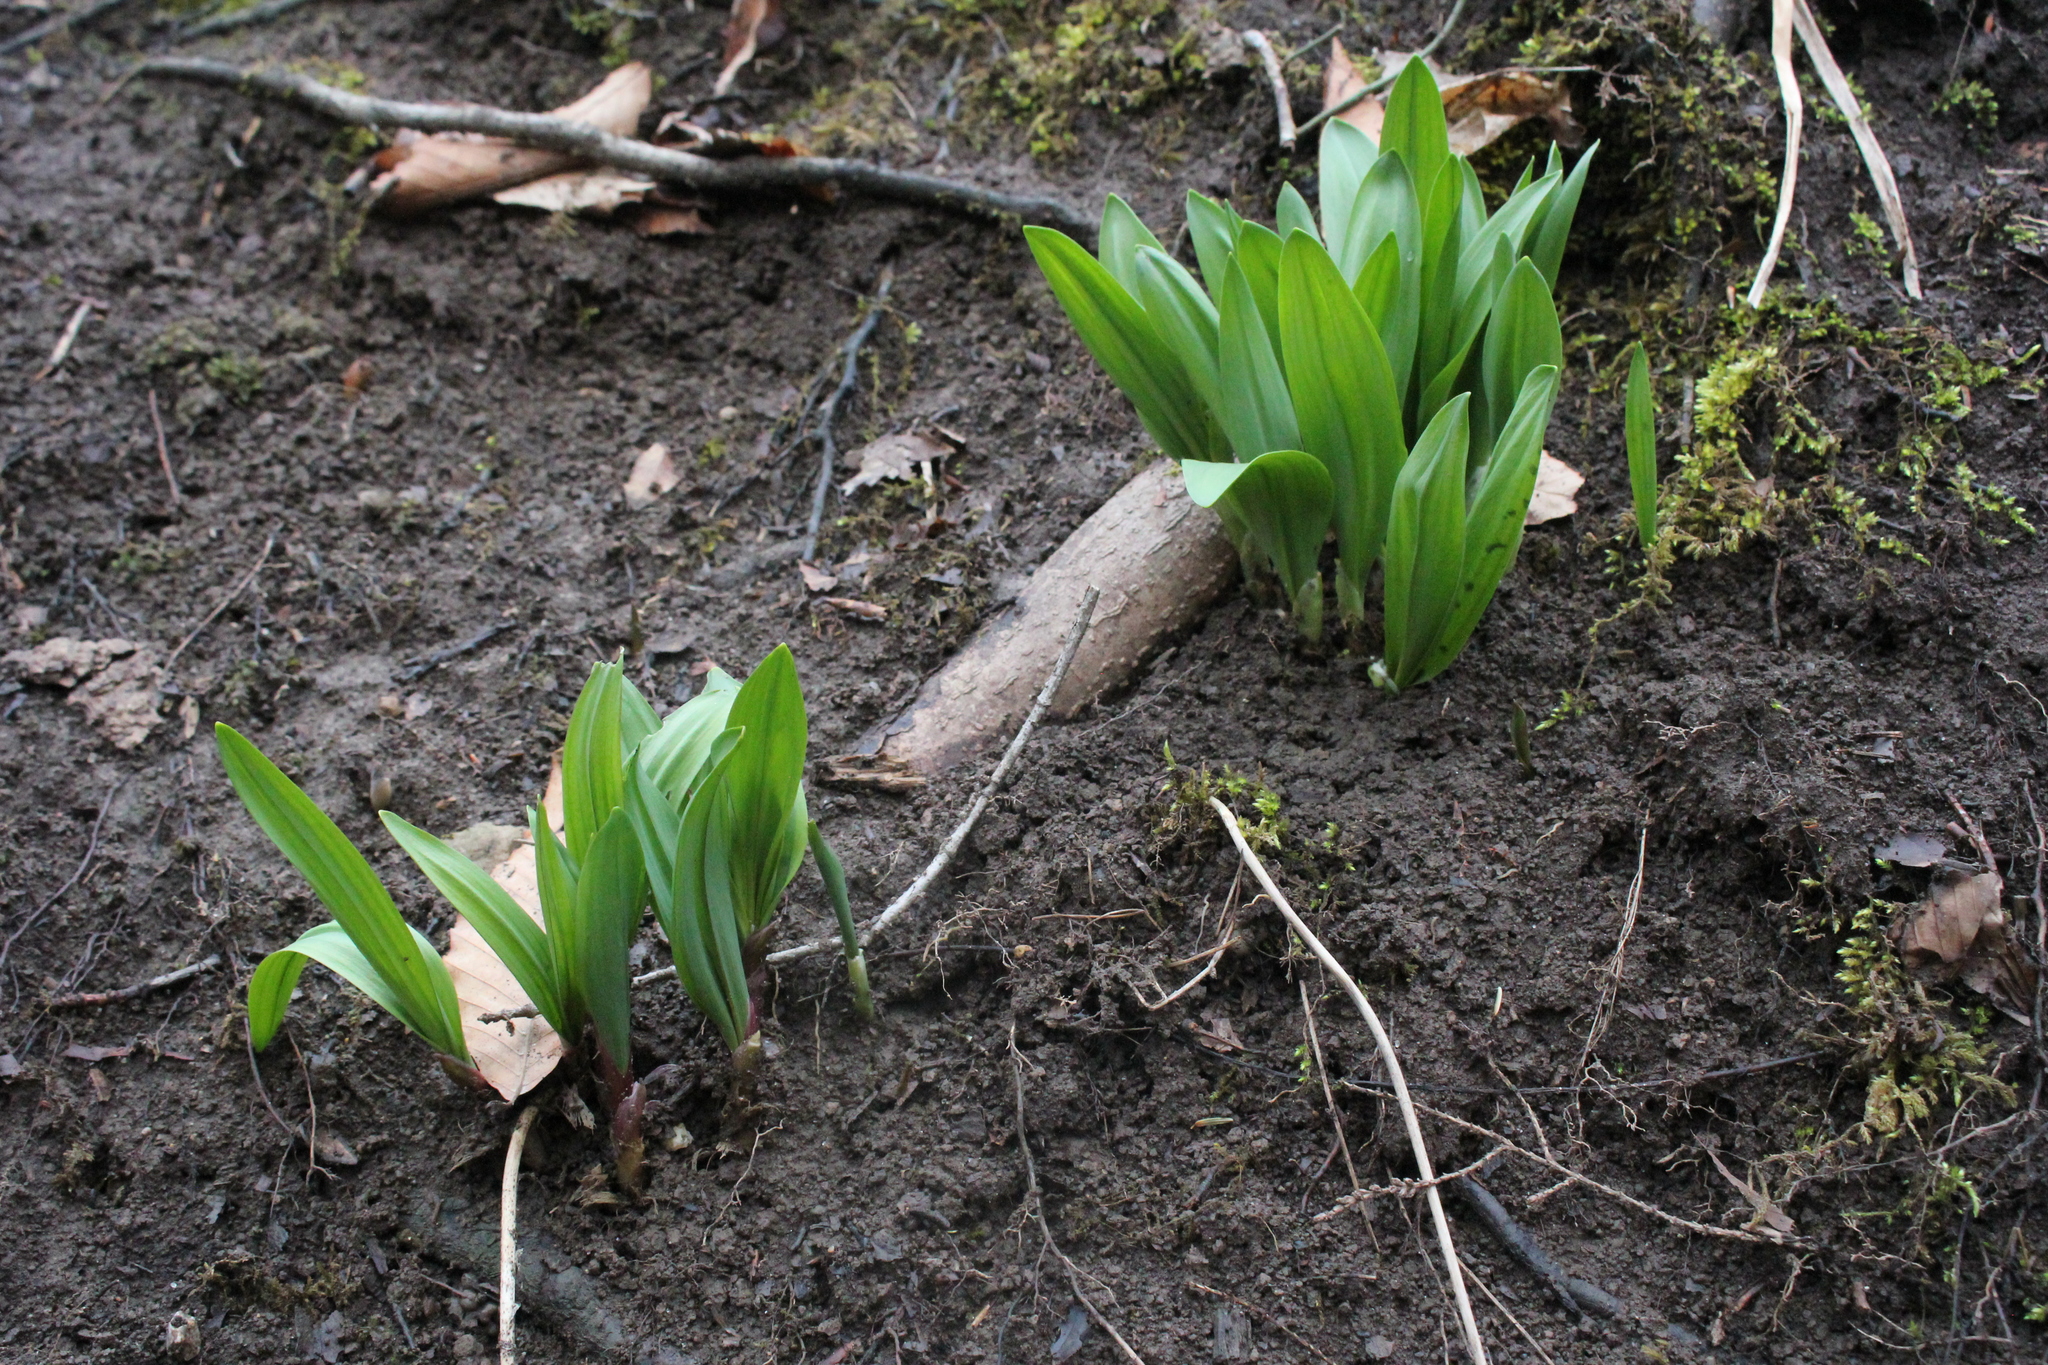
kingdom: Plantae
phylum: Tracheophyta
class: Liliopsida
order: Asparagales
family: Amaryllidaceae
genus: Allium
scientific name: Allium tricoccum
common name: Ramp
